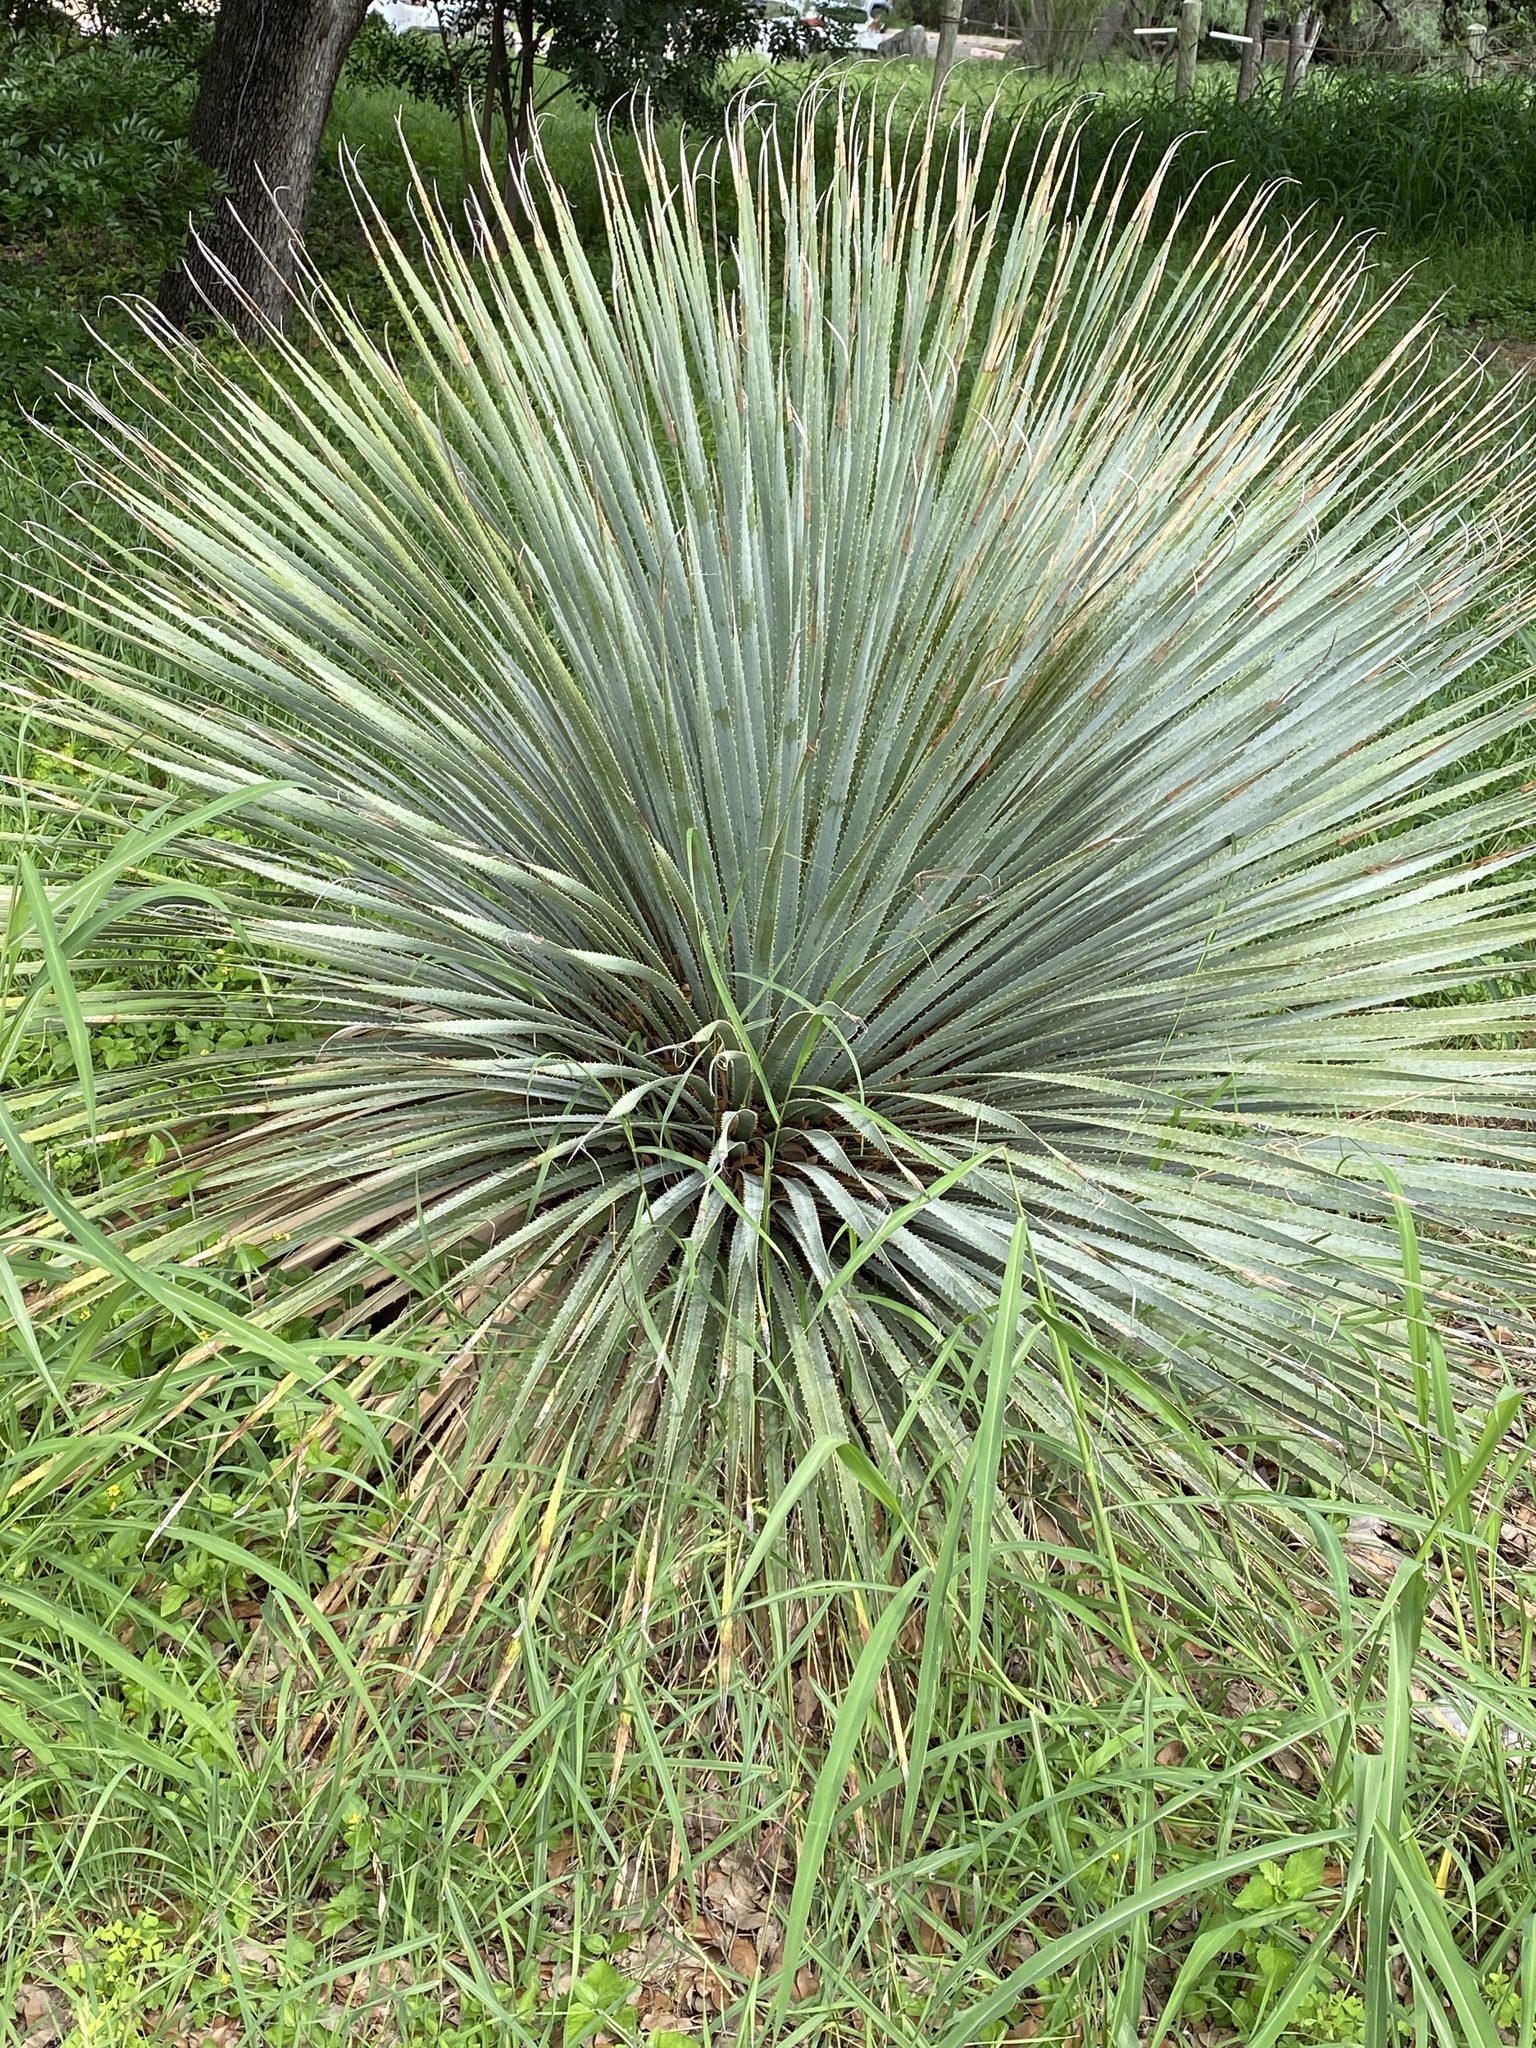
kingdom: Plantae
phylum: Tracheophyta
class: Liliopsida
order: Asparagales
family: Asparagaceae
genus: Dasylirion
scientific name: Dasylirion texanum
